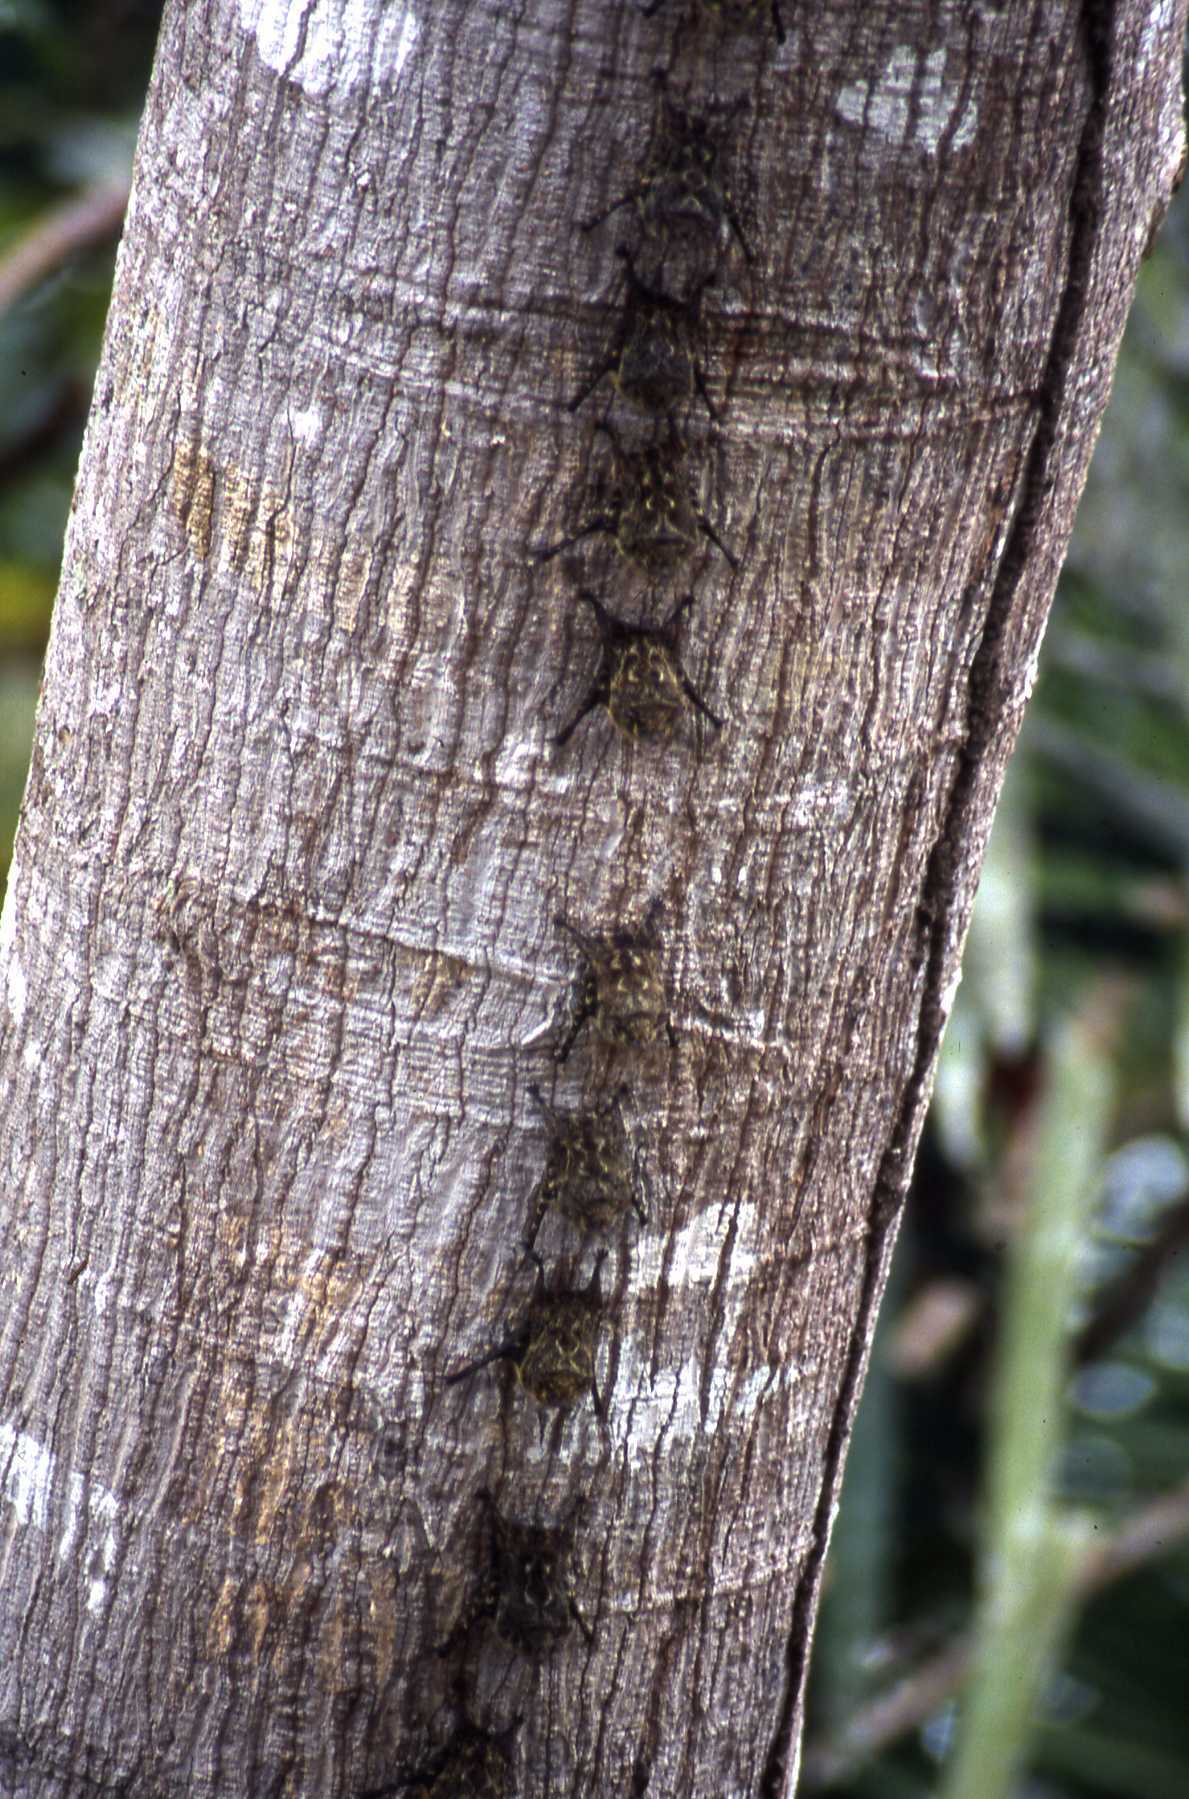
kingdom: Animalia
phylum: Chordata
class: Mammalia
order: Chiroptera
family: Emballonuridae
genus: Rhynchonycteris
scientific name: Rhynchonycteris naso
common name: Proboscis bat
